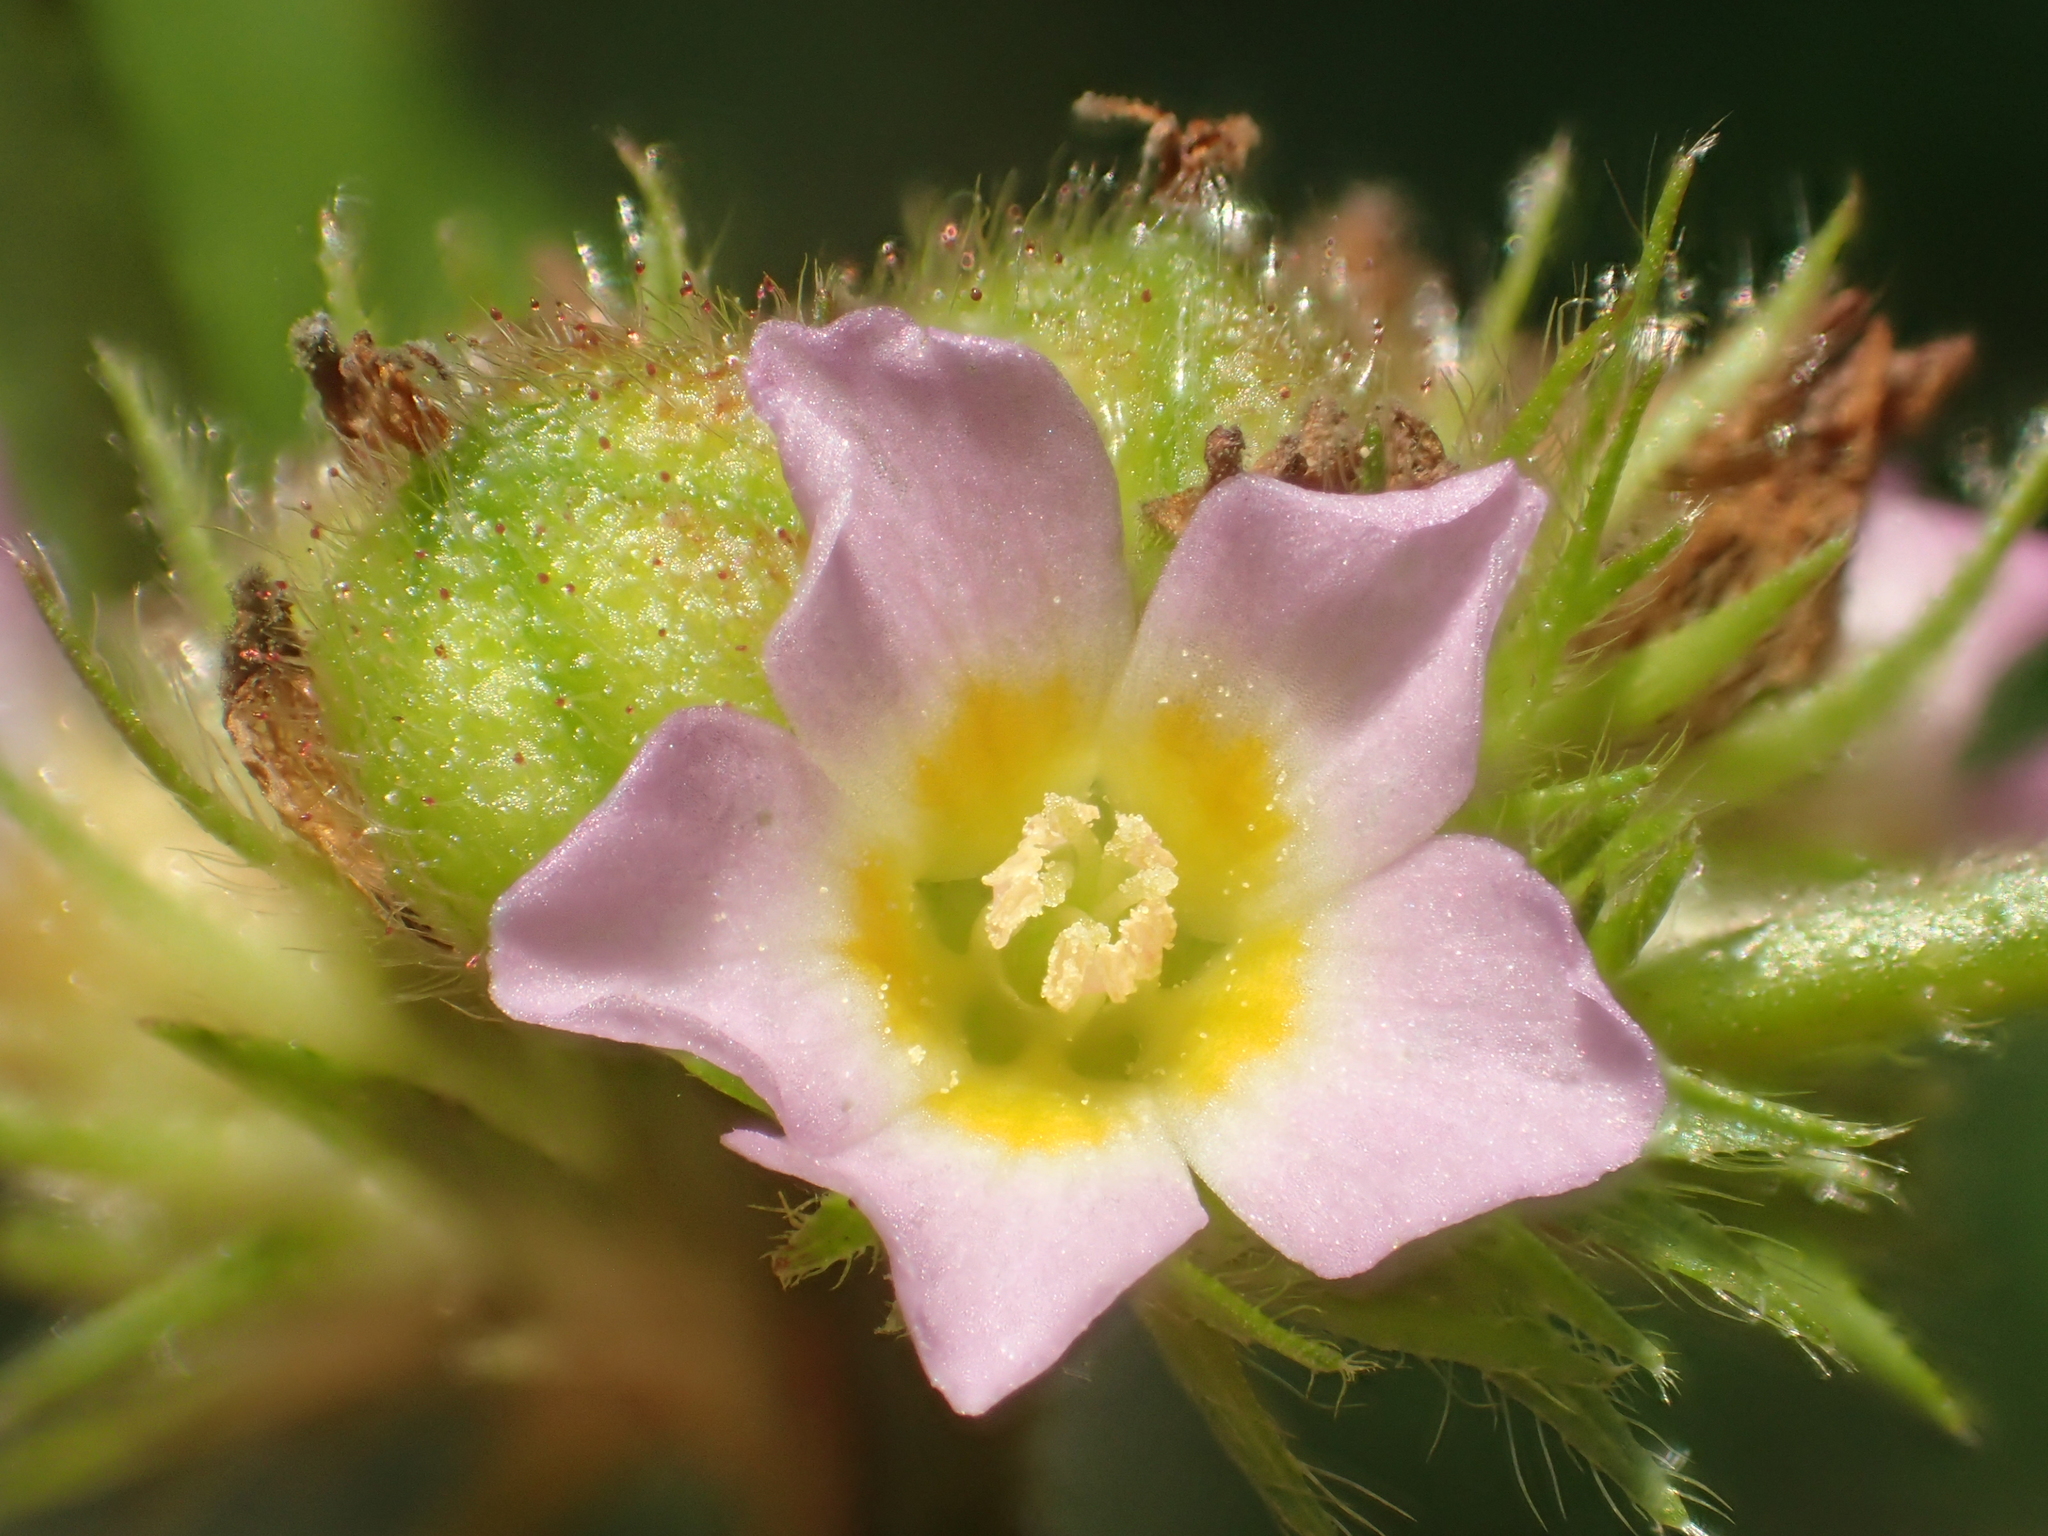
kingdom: Plantae
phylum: Tracheophyta
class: Magnoliopsida
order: Malvales
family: Malvaceae
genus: Melochia
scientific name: Melochia corchorifolia
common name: Chocolateweed
